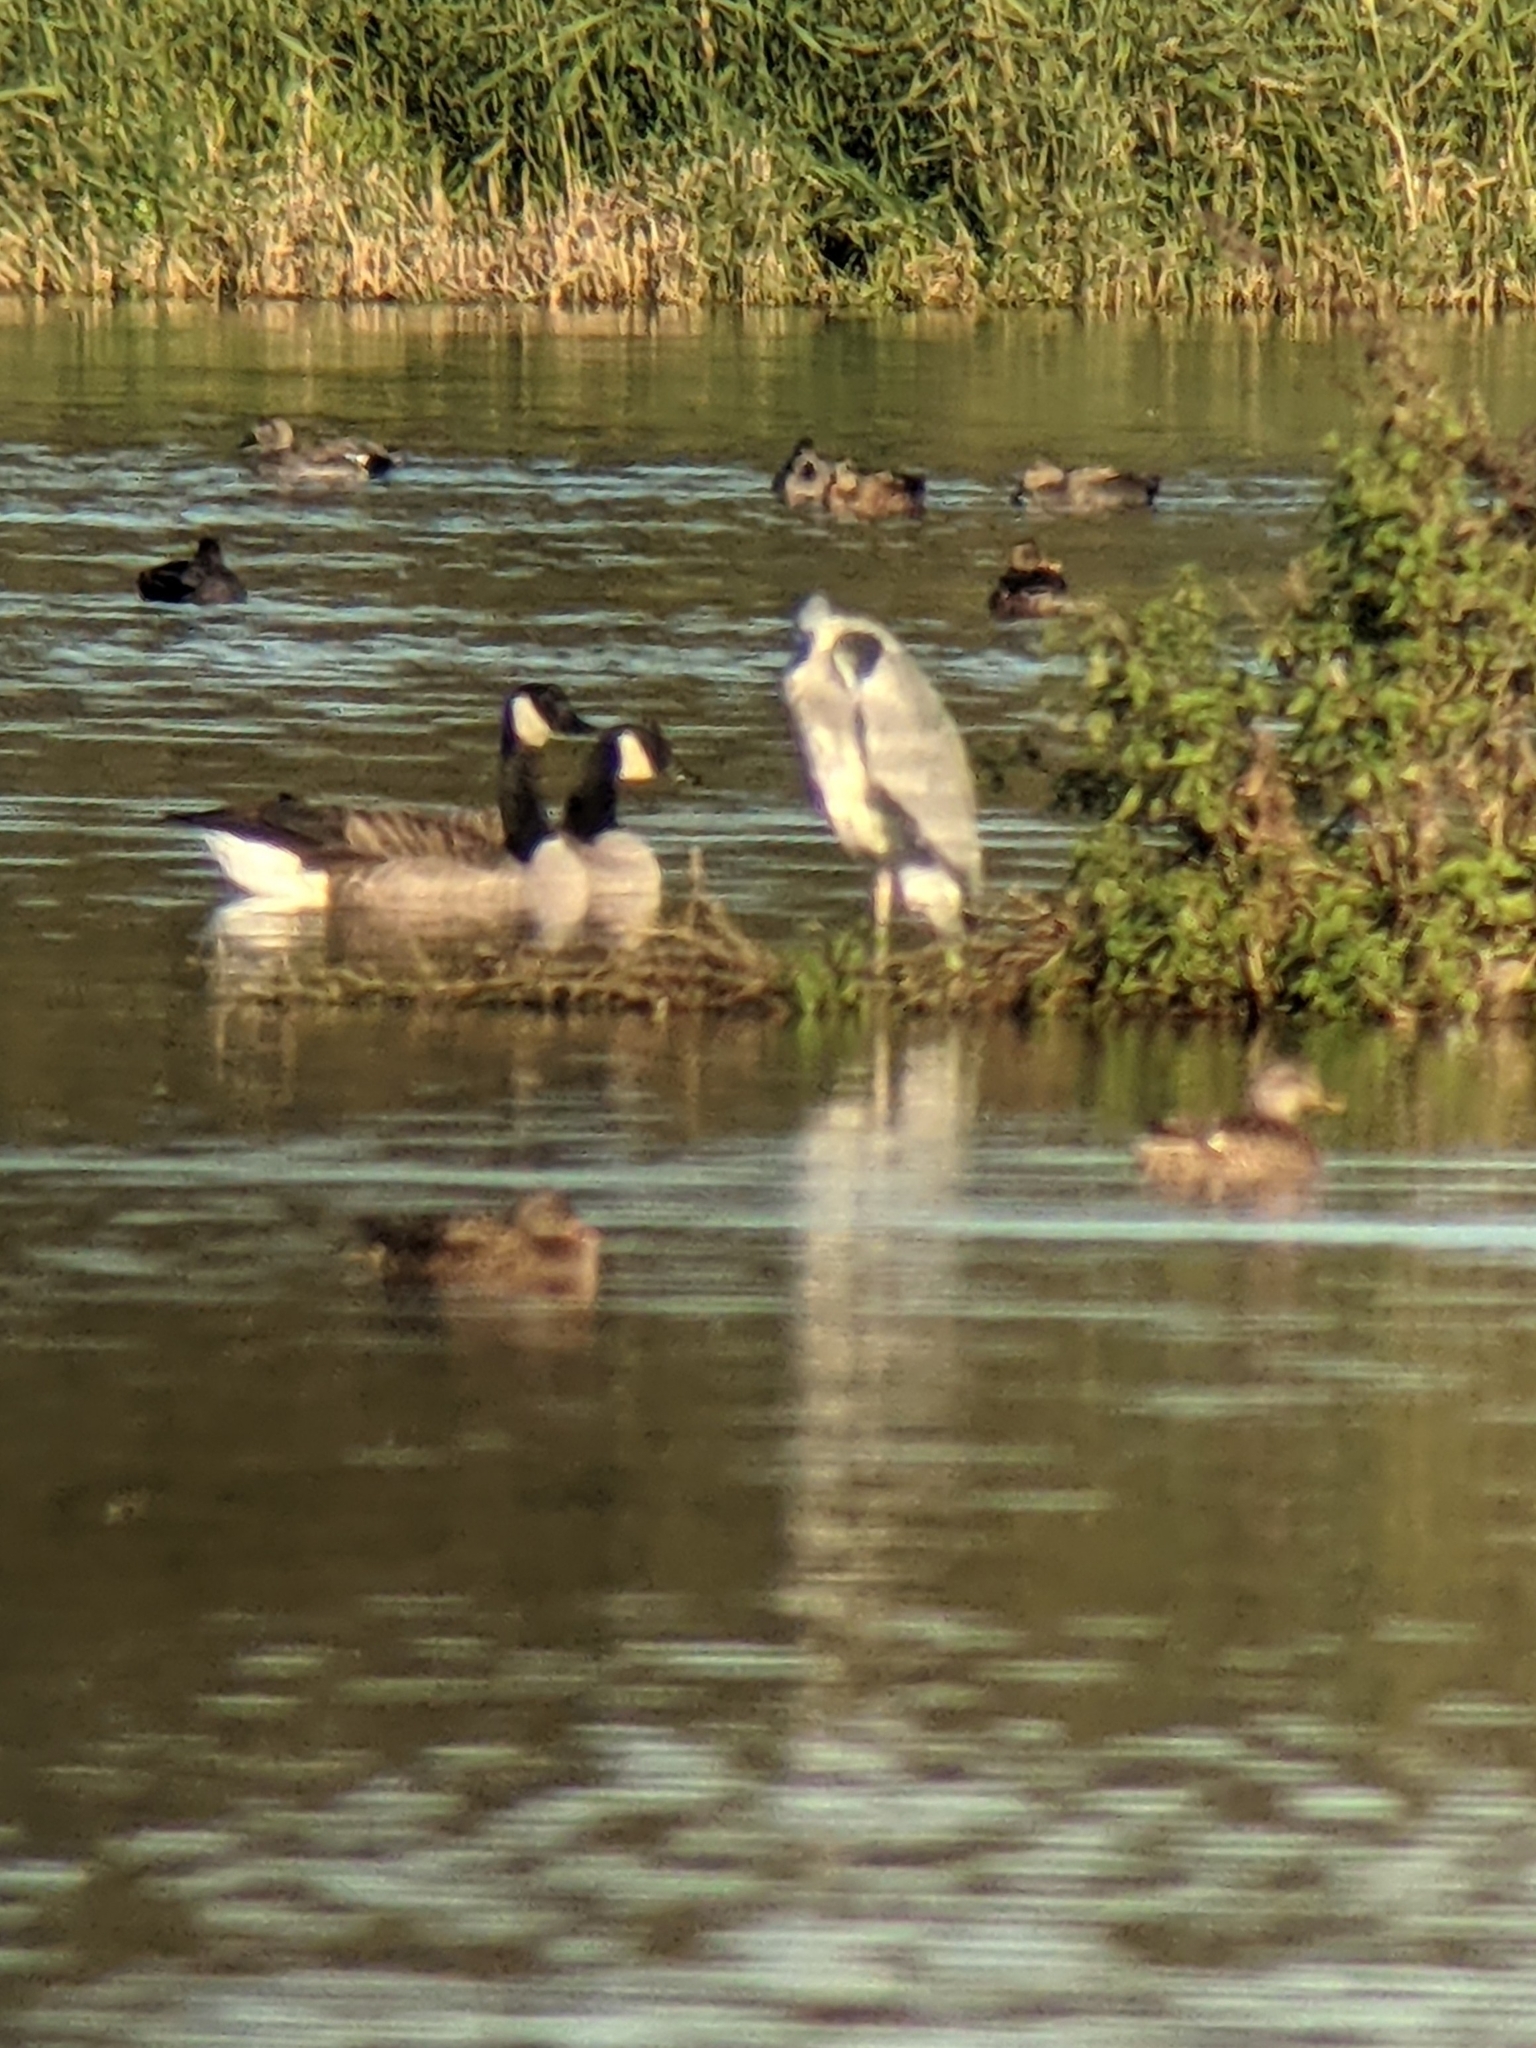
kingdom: Animalia
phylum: Chordata
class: Aves
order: Anseriformes
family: Anatidae
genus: Branta
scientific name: Branta canadensis
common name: Canada goose
